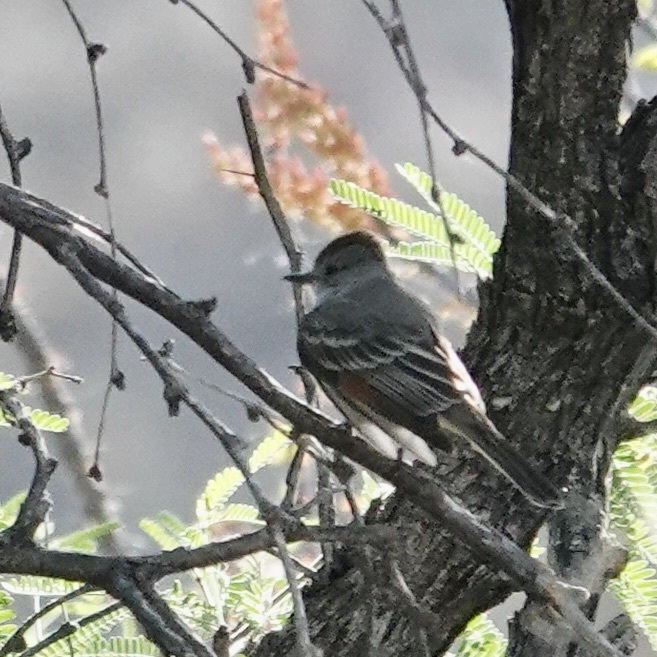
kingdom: Animalia
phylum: Chordata
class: Aves
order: Passeriformes
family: Tyrannidae
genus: Myiarchus
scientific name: Myiarchus cinerascens
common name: Ash-throated flycatcher
